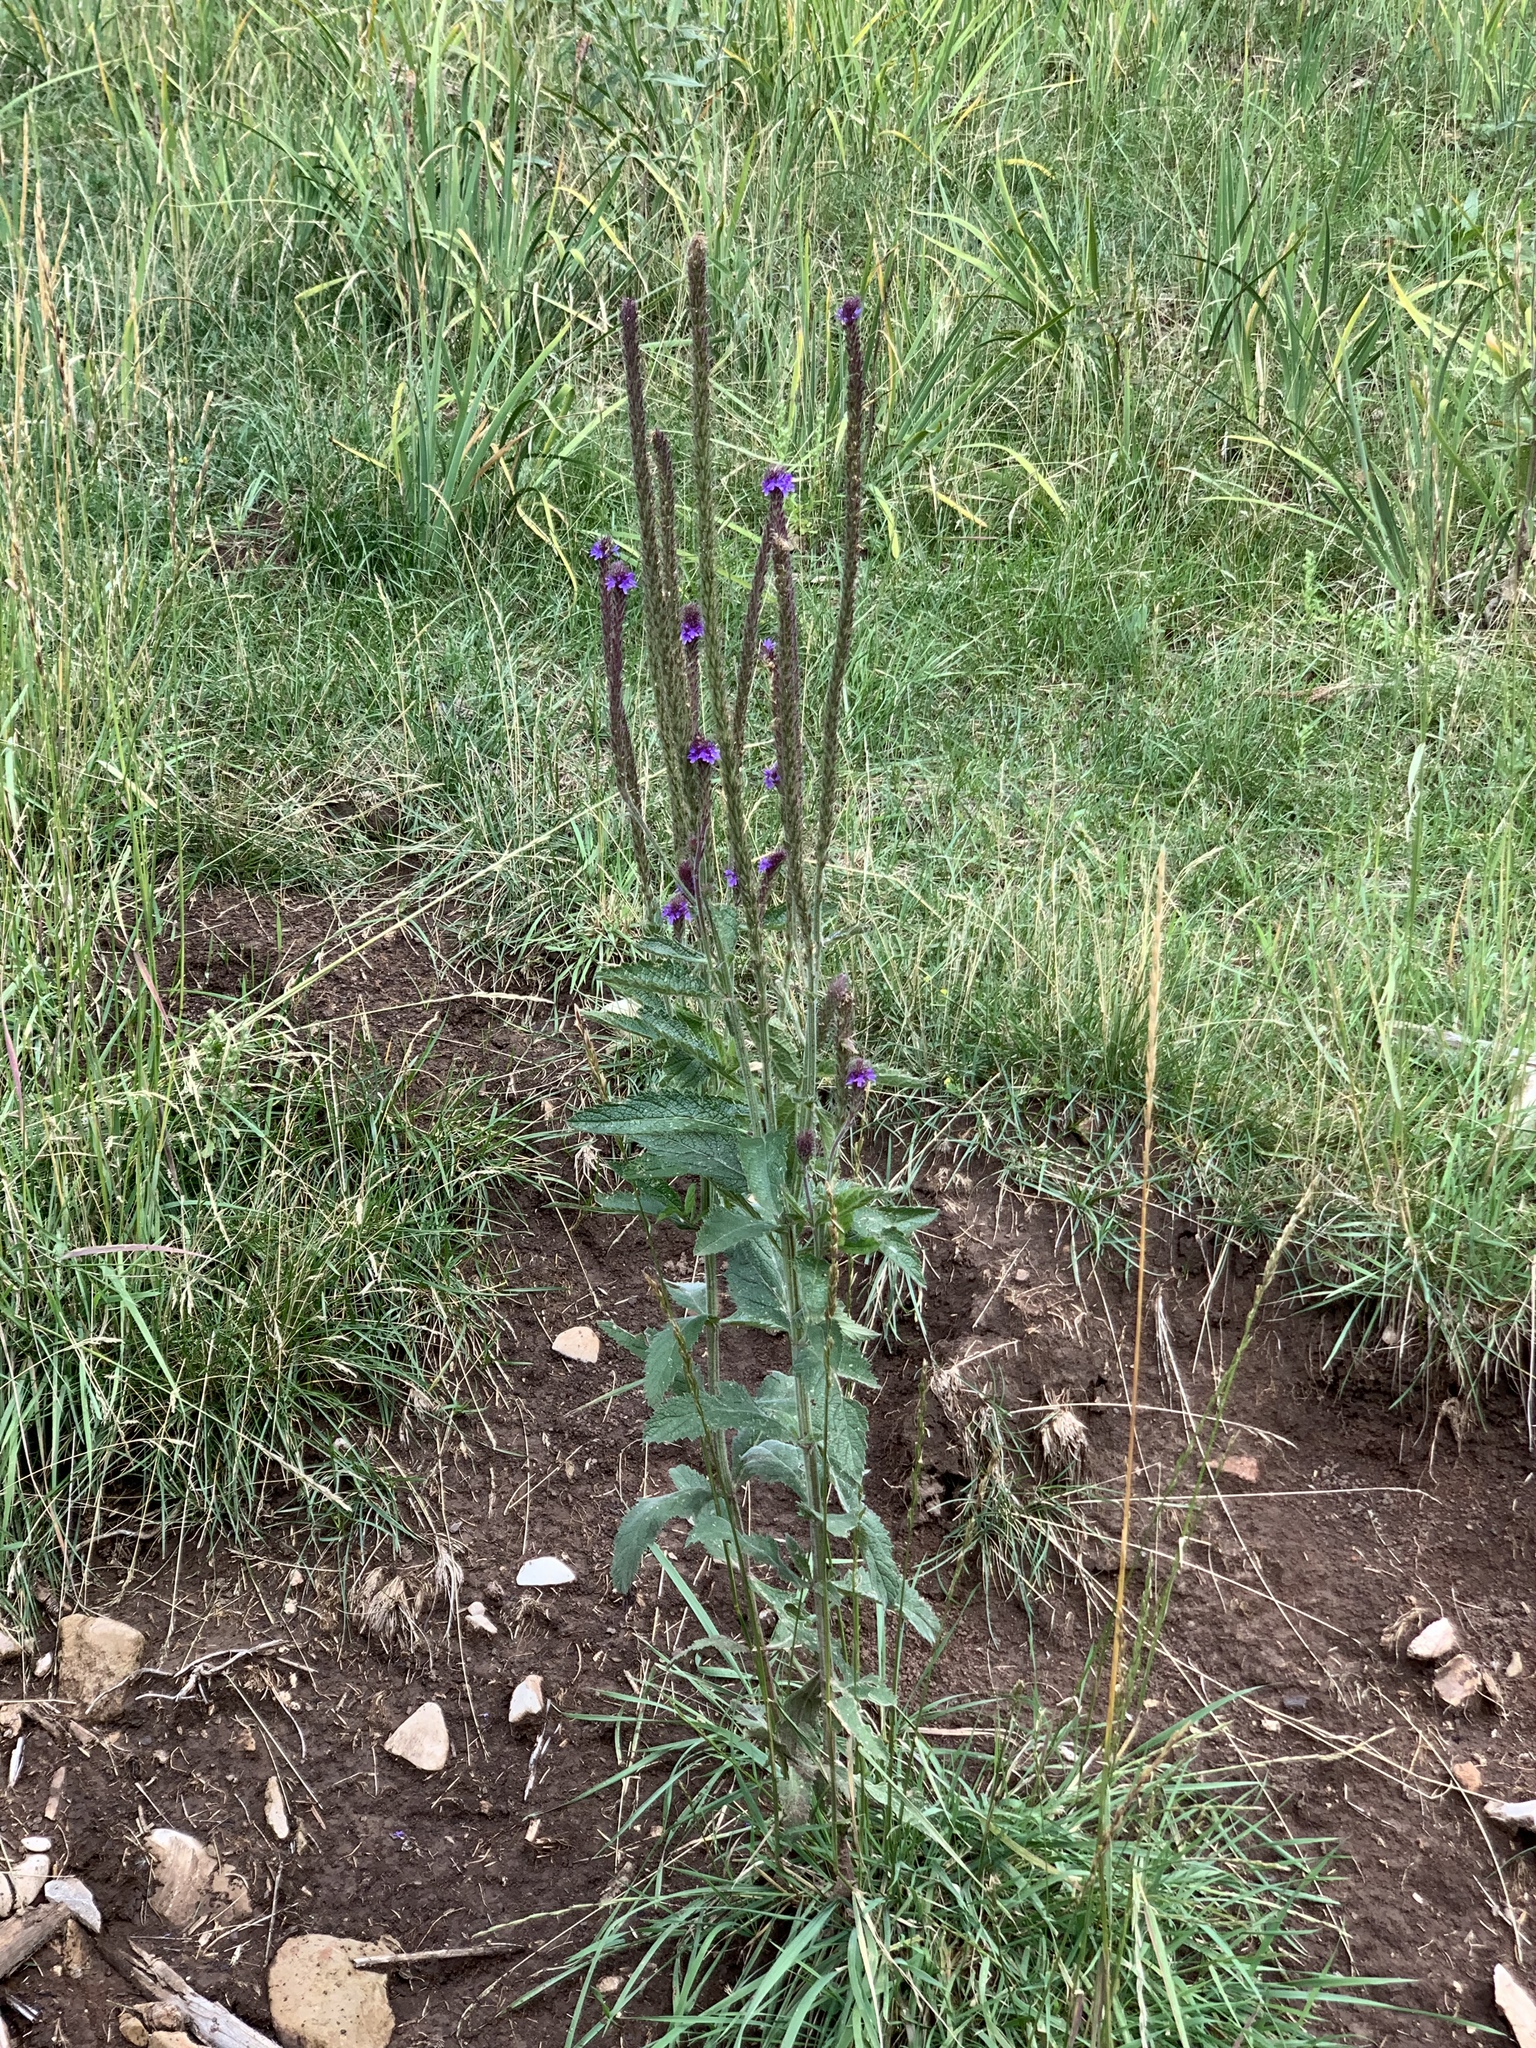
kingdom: Plantae
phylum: Tracheophyta
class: Magnoliopsida
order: Lamiales
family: Verbenaceae
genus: Verbena
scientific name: Verbena macdougalii
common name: New mexico vervain
